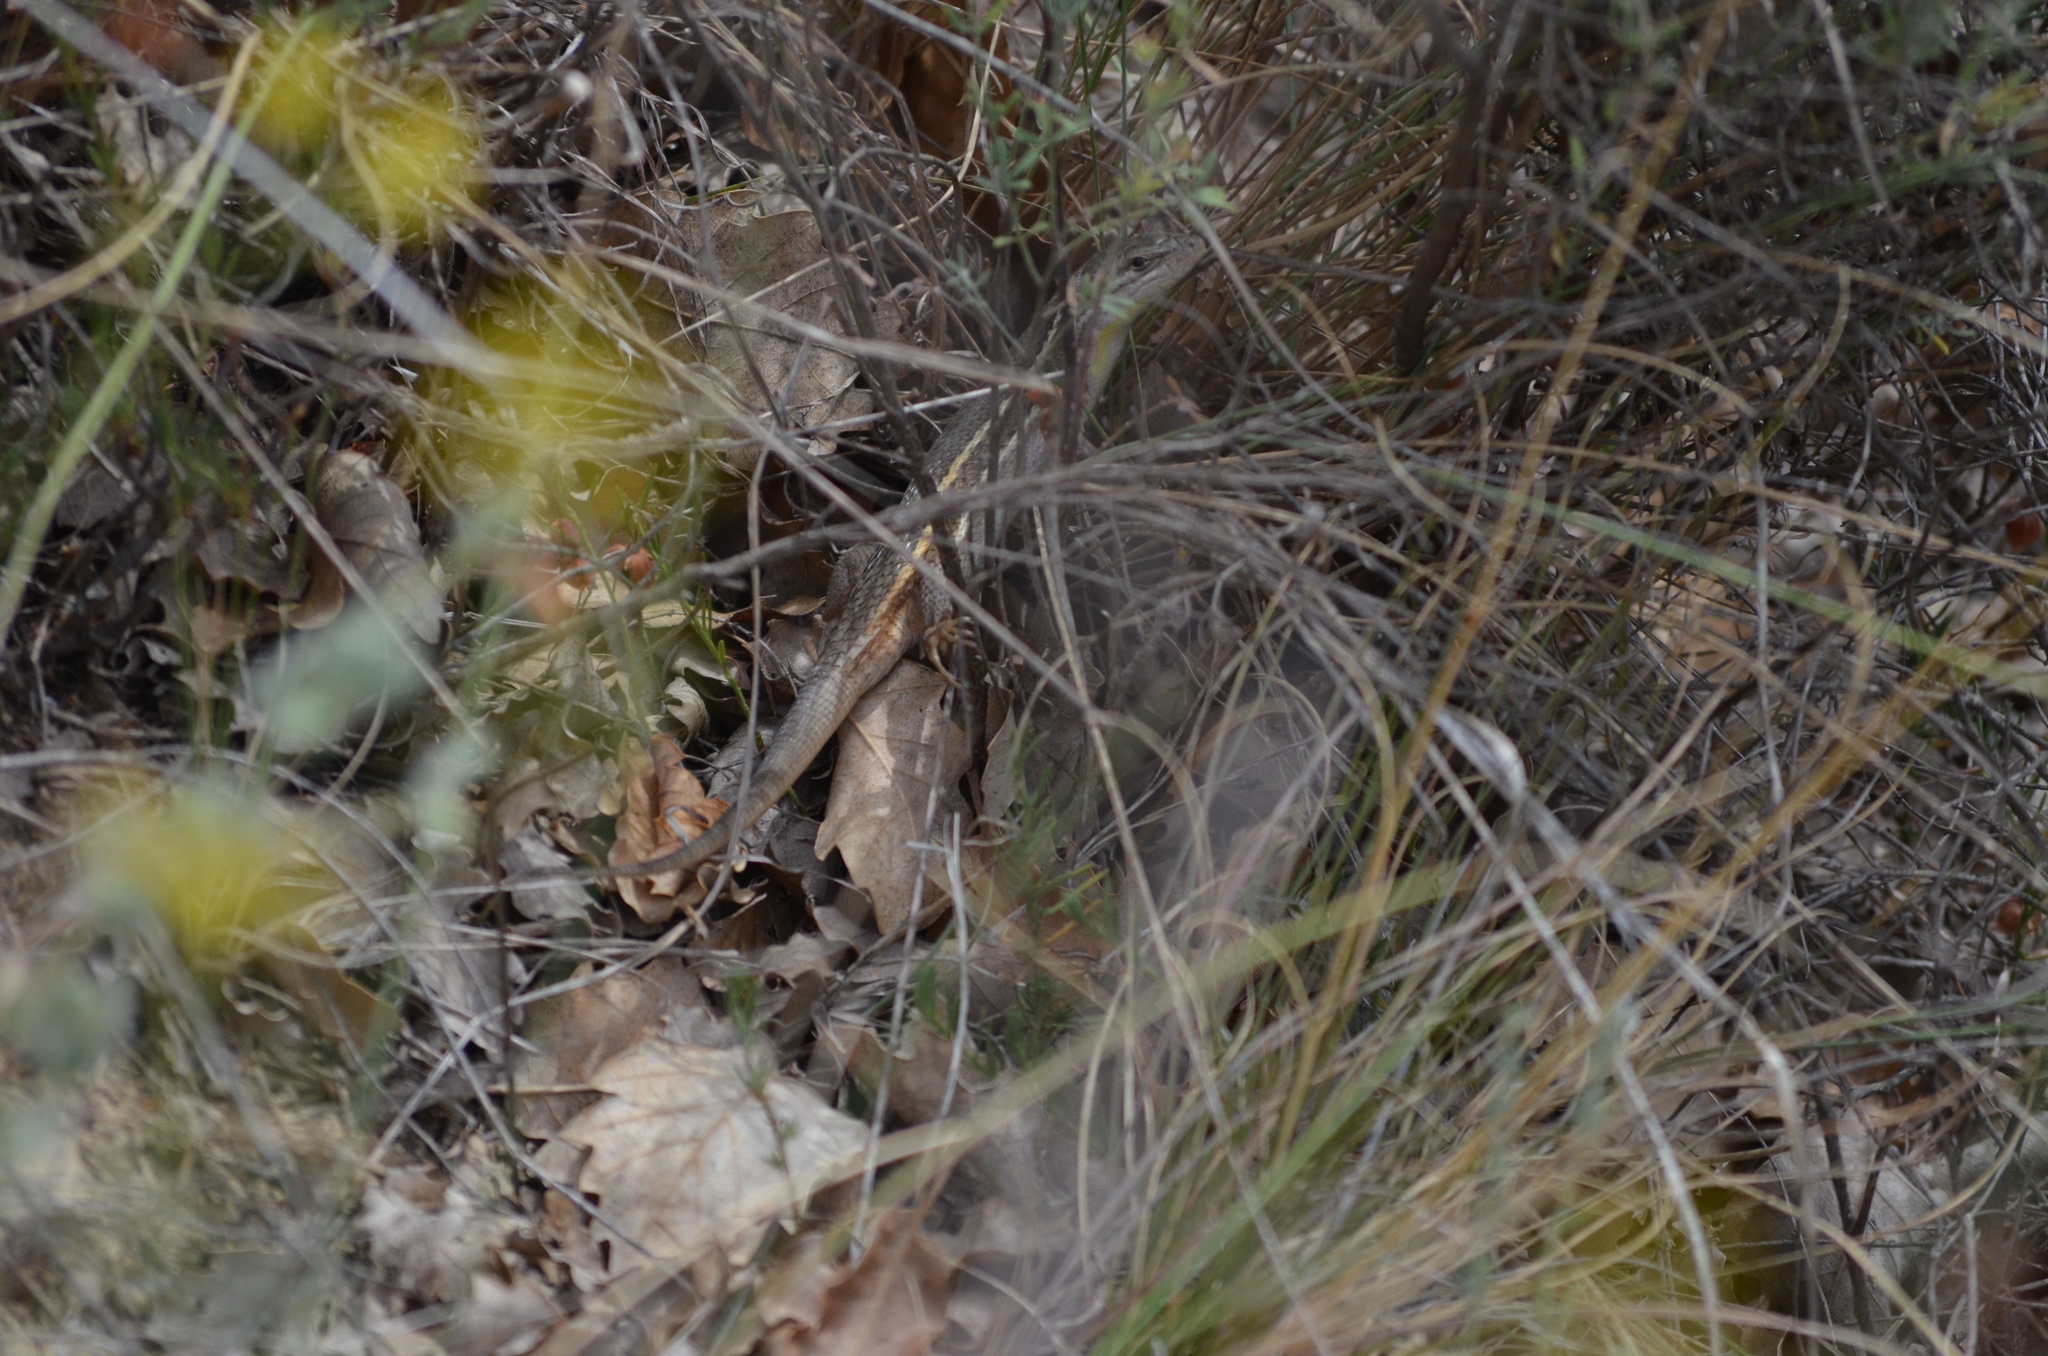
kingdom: Animalia
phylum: Chordata
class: Squamata
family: Lacertidae
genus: Psammodromus
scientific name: Psammodromus algirus
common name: Algerian psammodromus
